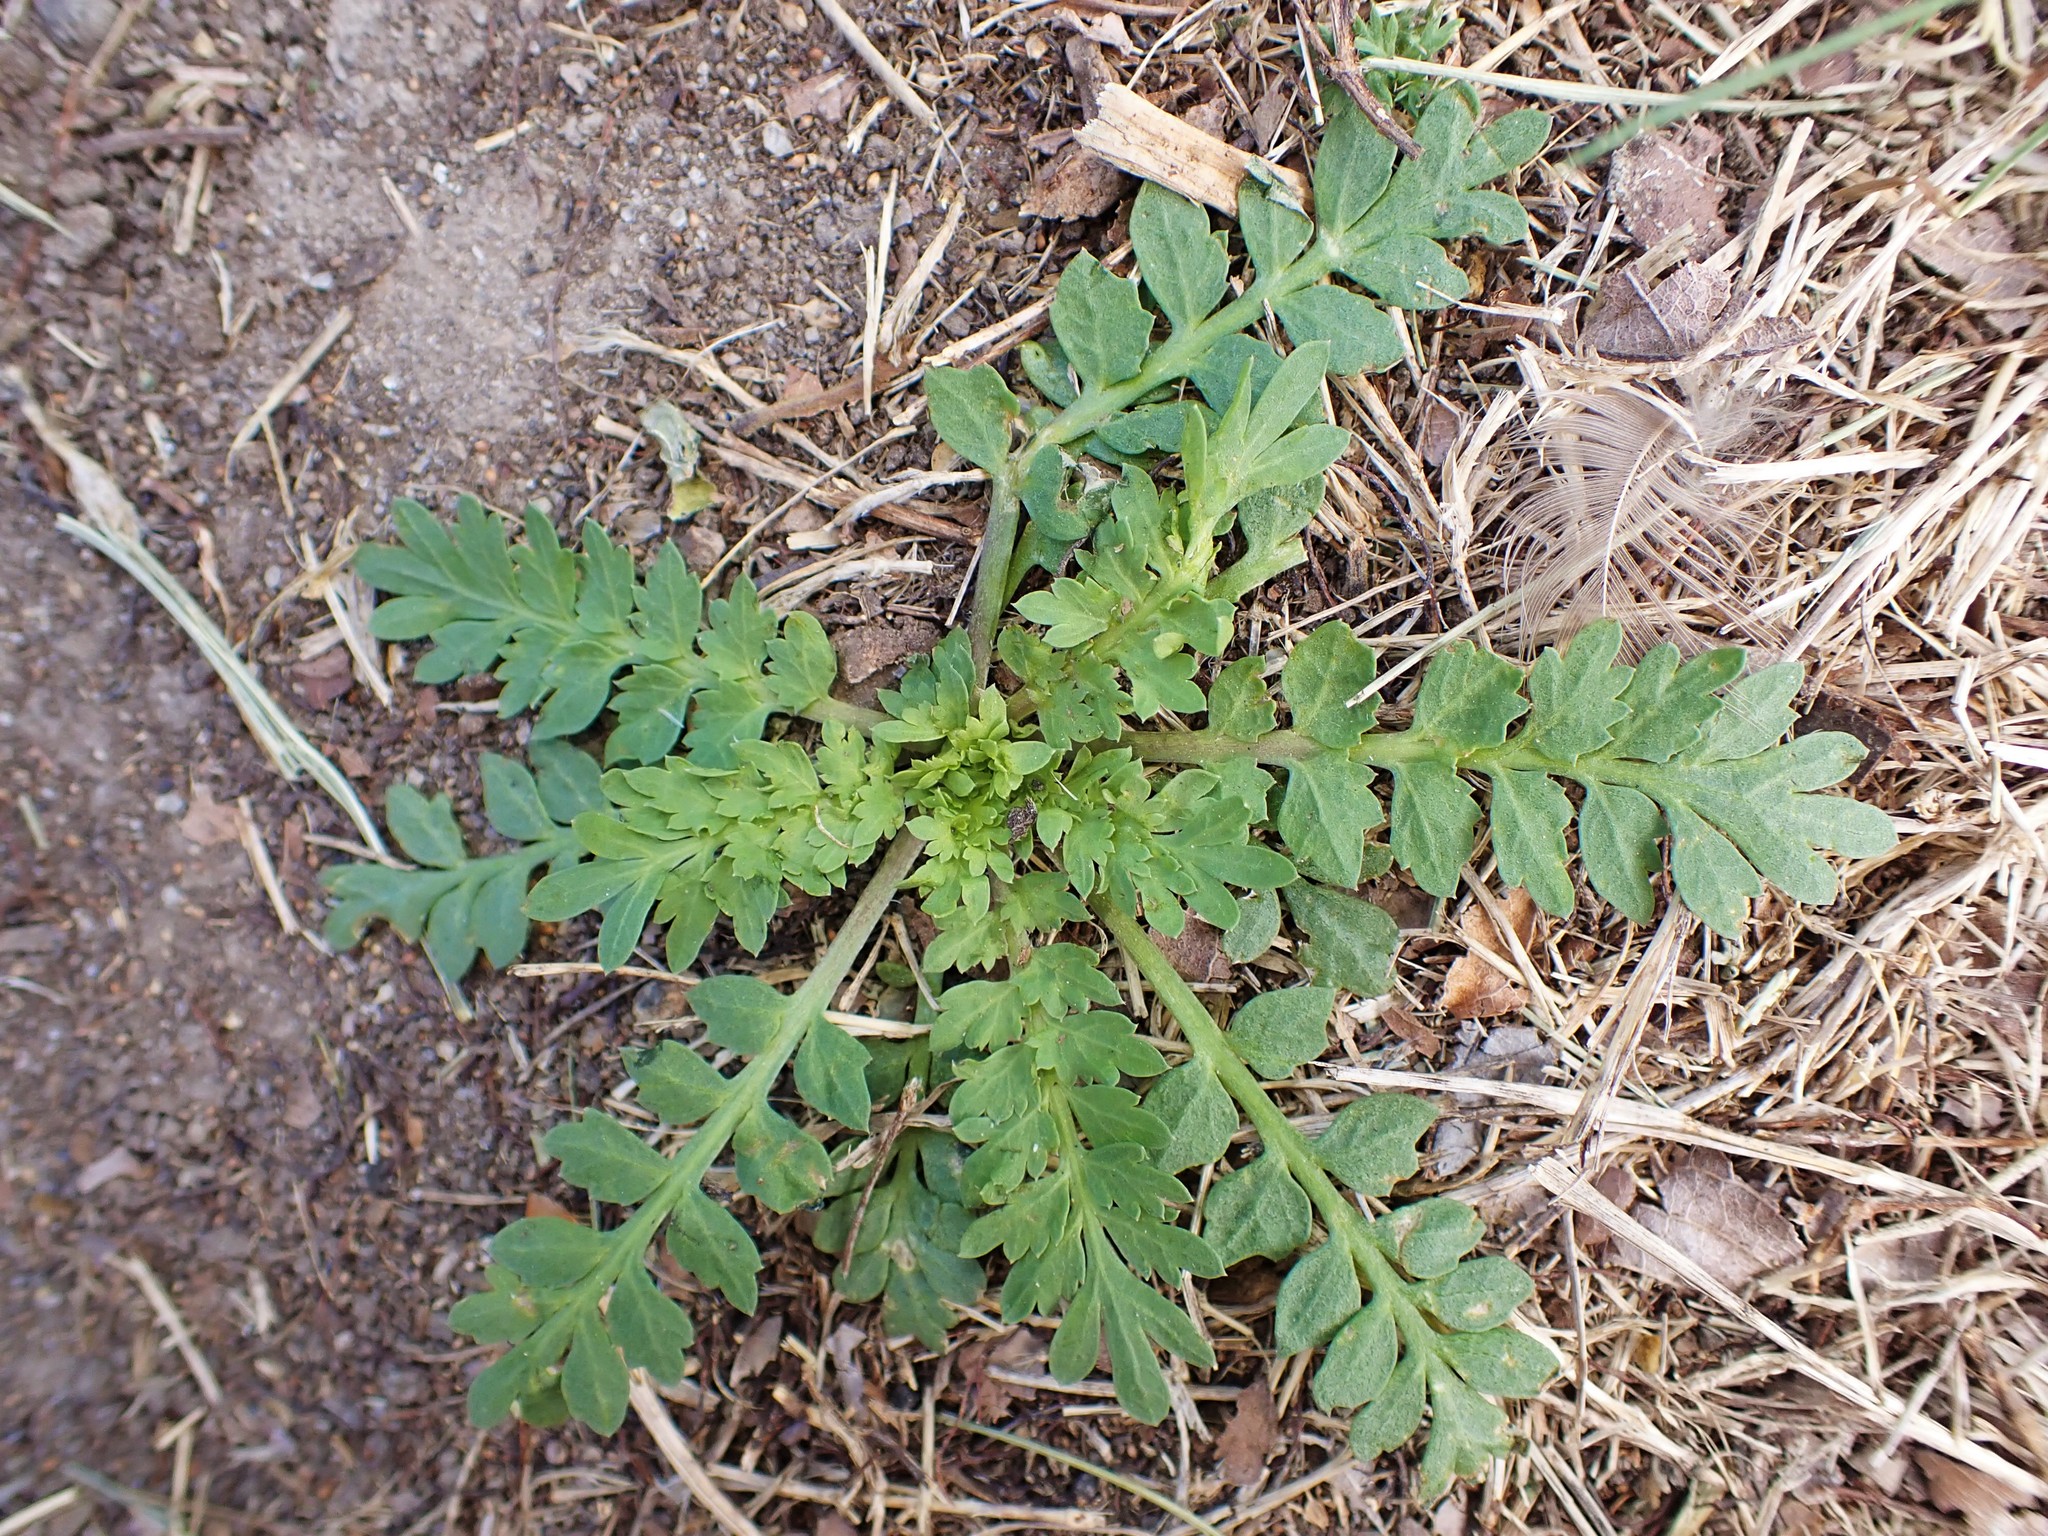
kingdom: Plantae
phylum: Tracheophyta
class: Magnoliopsida
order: Brassicales
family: Brassicaceae
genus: Lepidium
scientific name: Lepidium didymum
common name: Lesser swinecress
